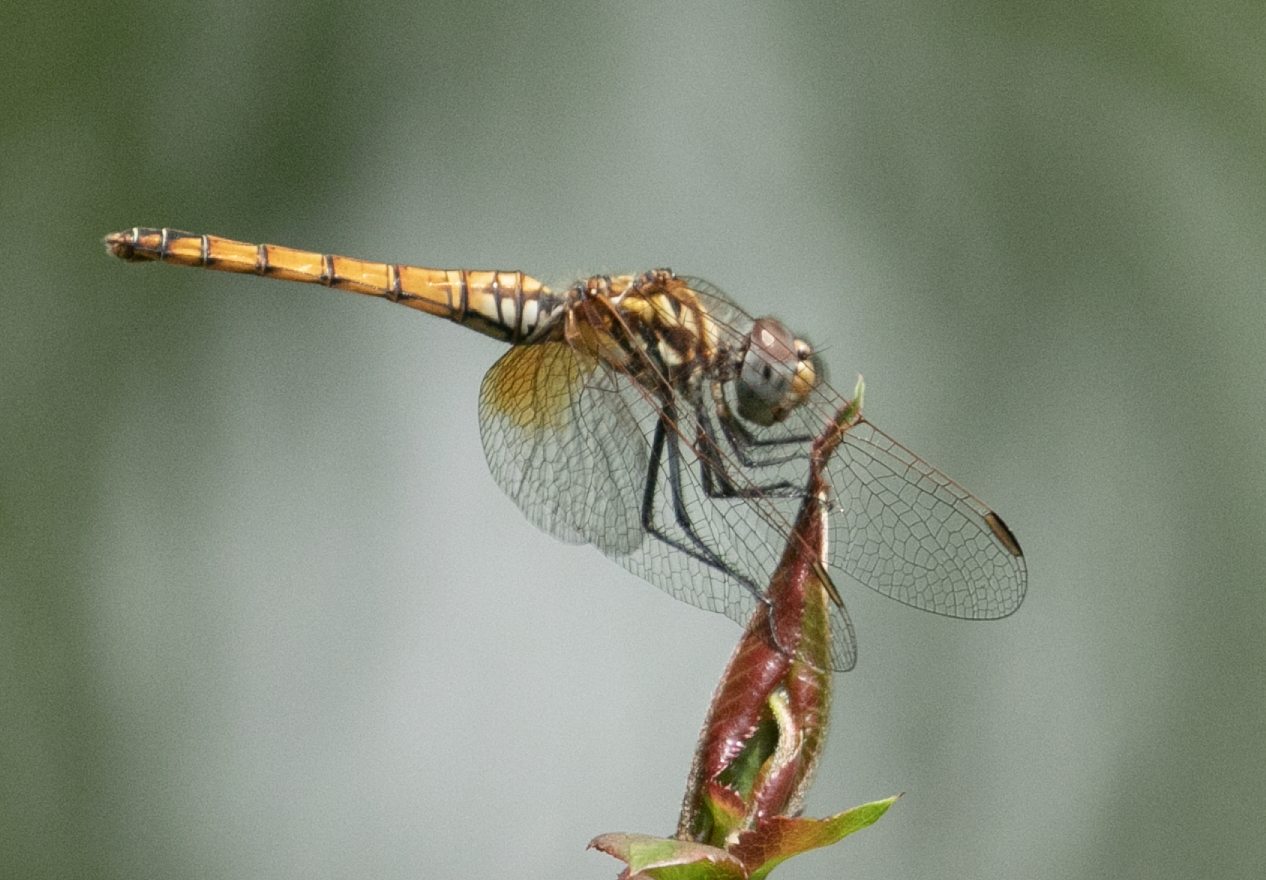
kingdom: Animalia
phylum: Arthropoda
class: Insecta
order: Odonata
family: Libellulidae
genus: Trithemis
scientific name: Trithemis annulata
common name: Violet dropwing
